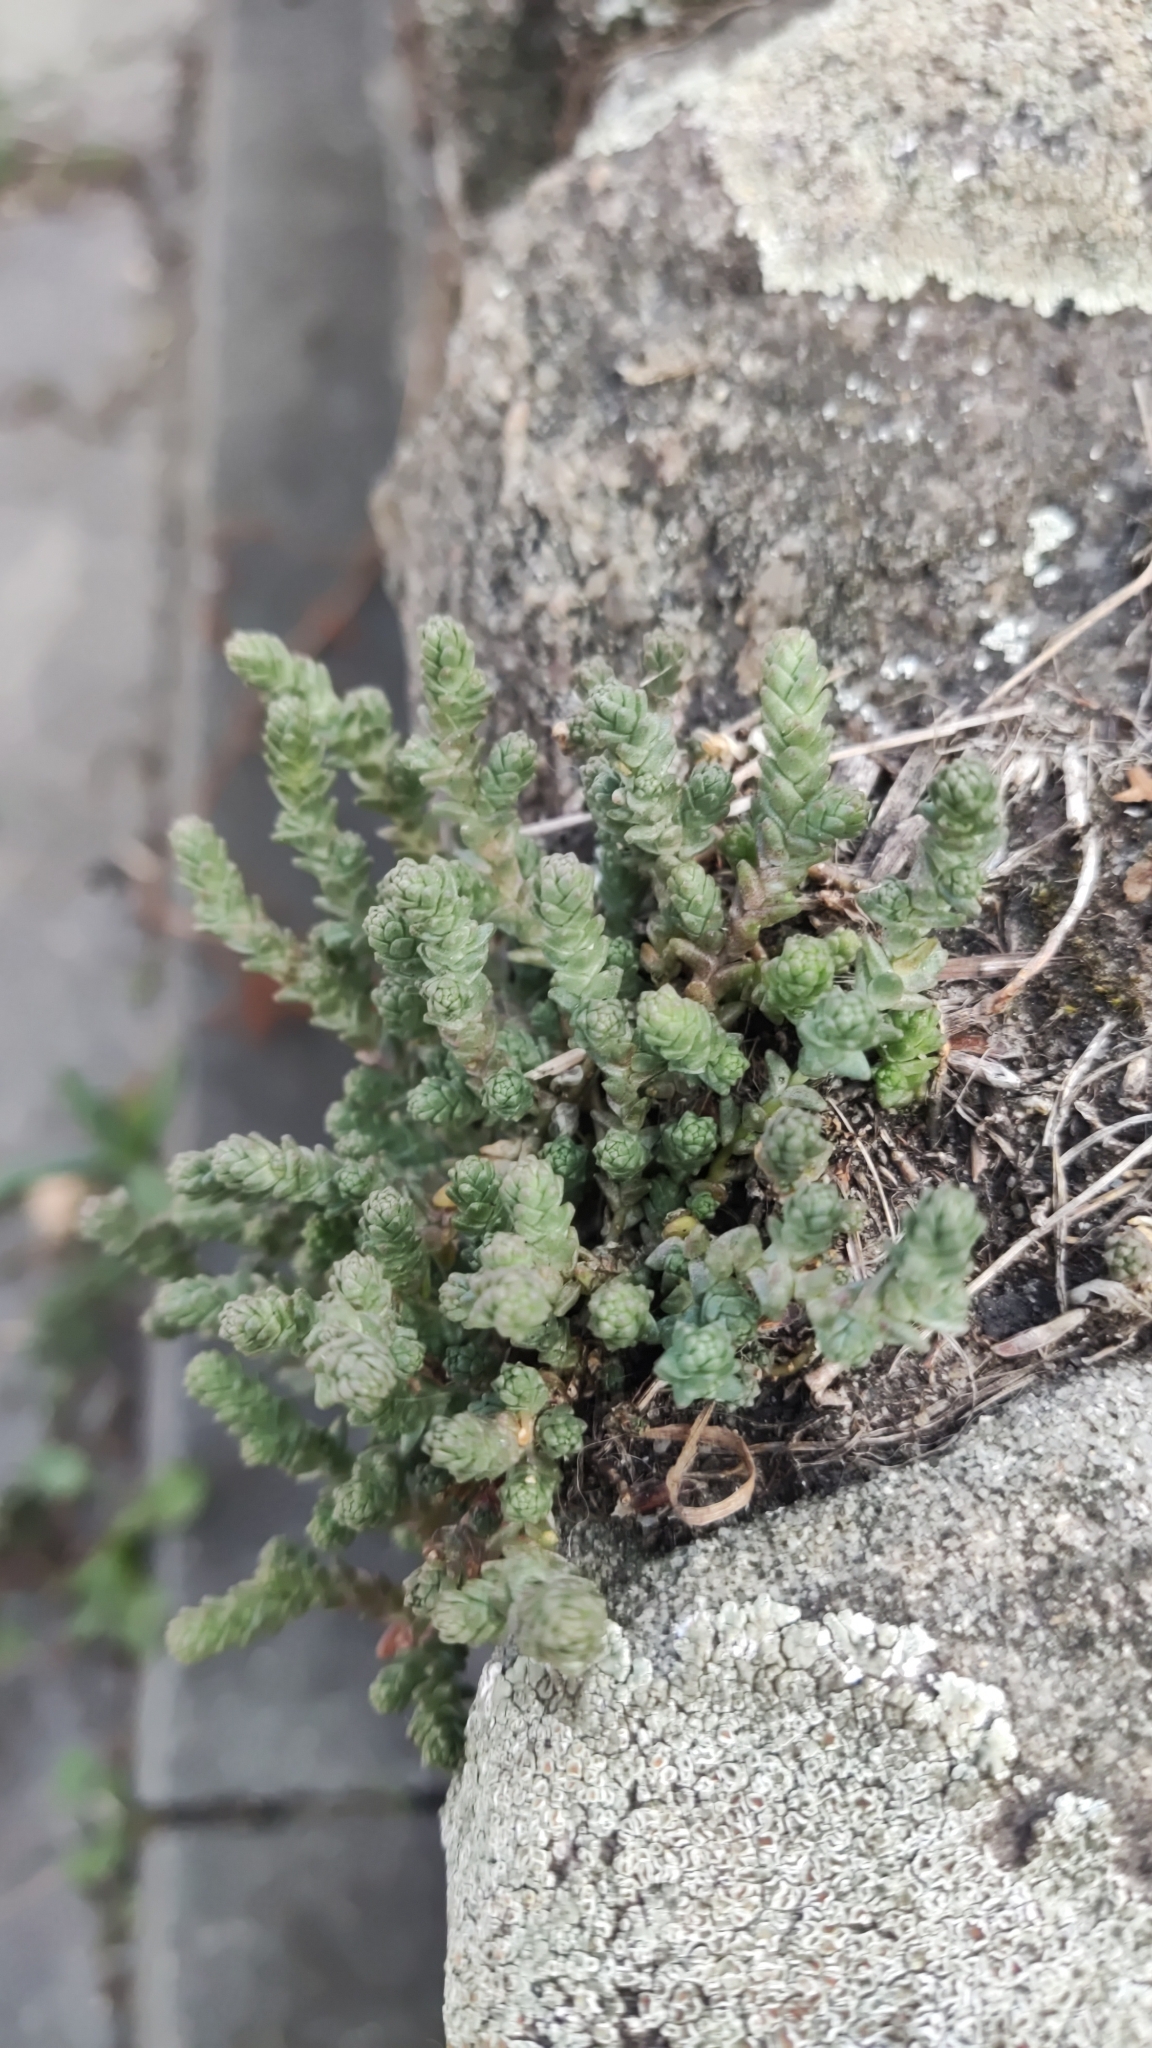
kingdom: Plantae
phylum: Tracheophyta
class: Magnoliopsida
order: Saxifragales
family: Crassulaceae
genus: Sedum
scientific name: Sedum acre
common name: Biting stonecrop
